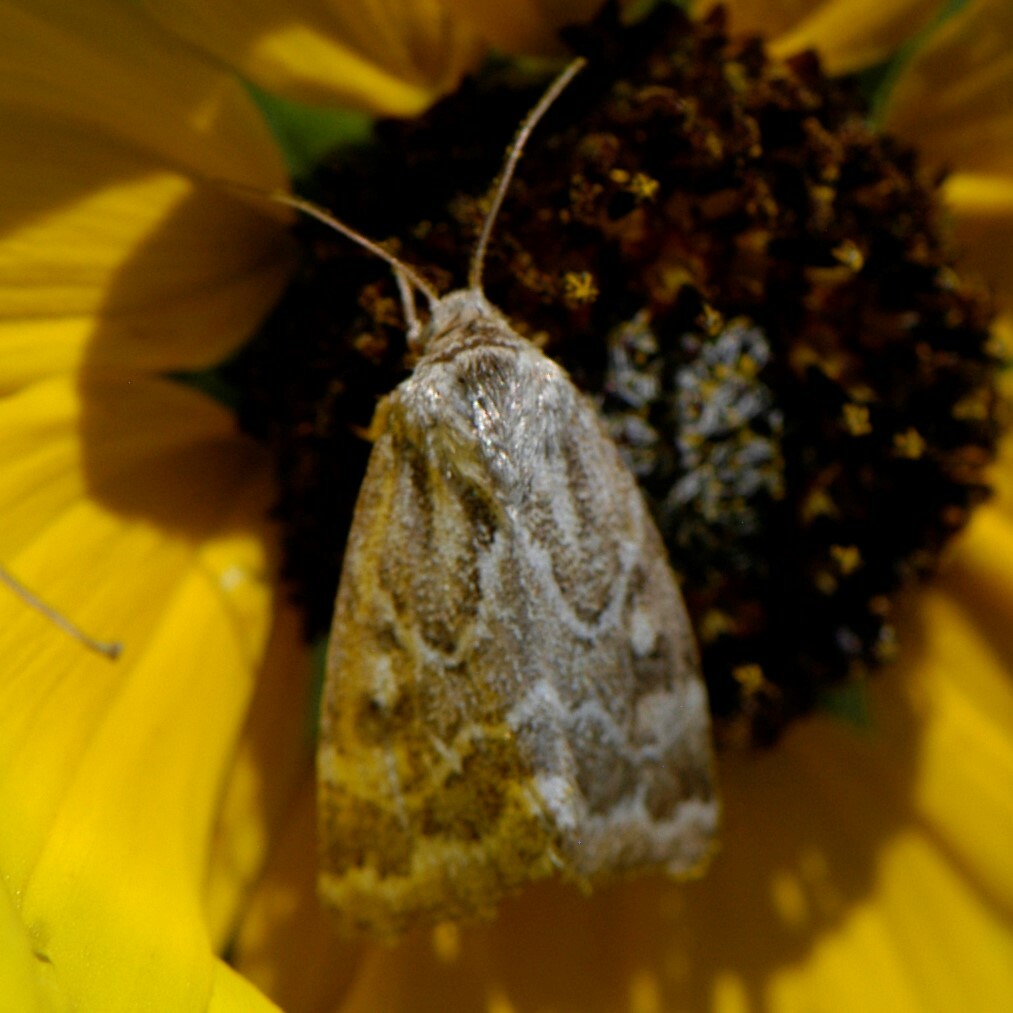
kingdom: Animalia
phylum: Arthropoda
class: Insecta
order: Lepidoptera
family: Noctuidae
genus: Schinia
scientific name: Schinia acutilinea
